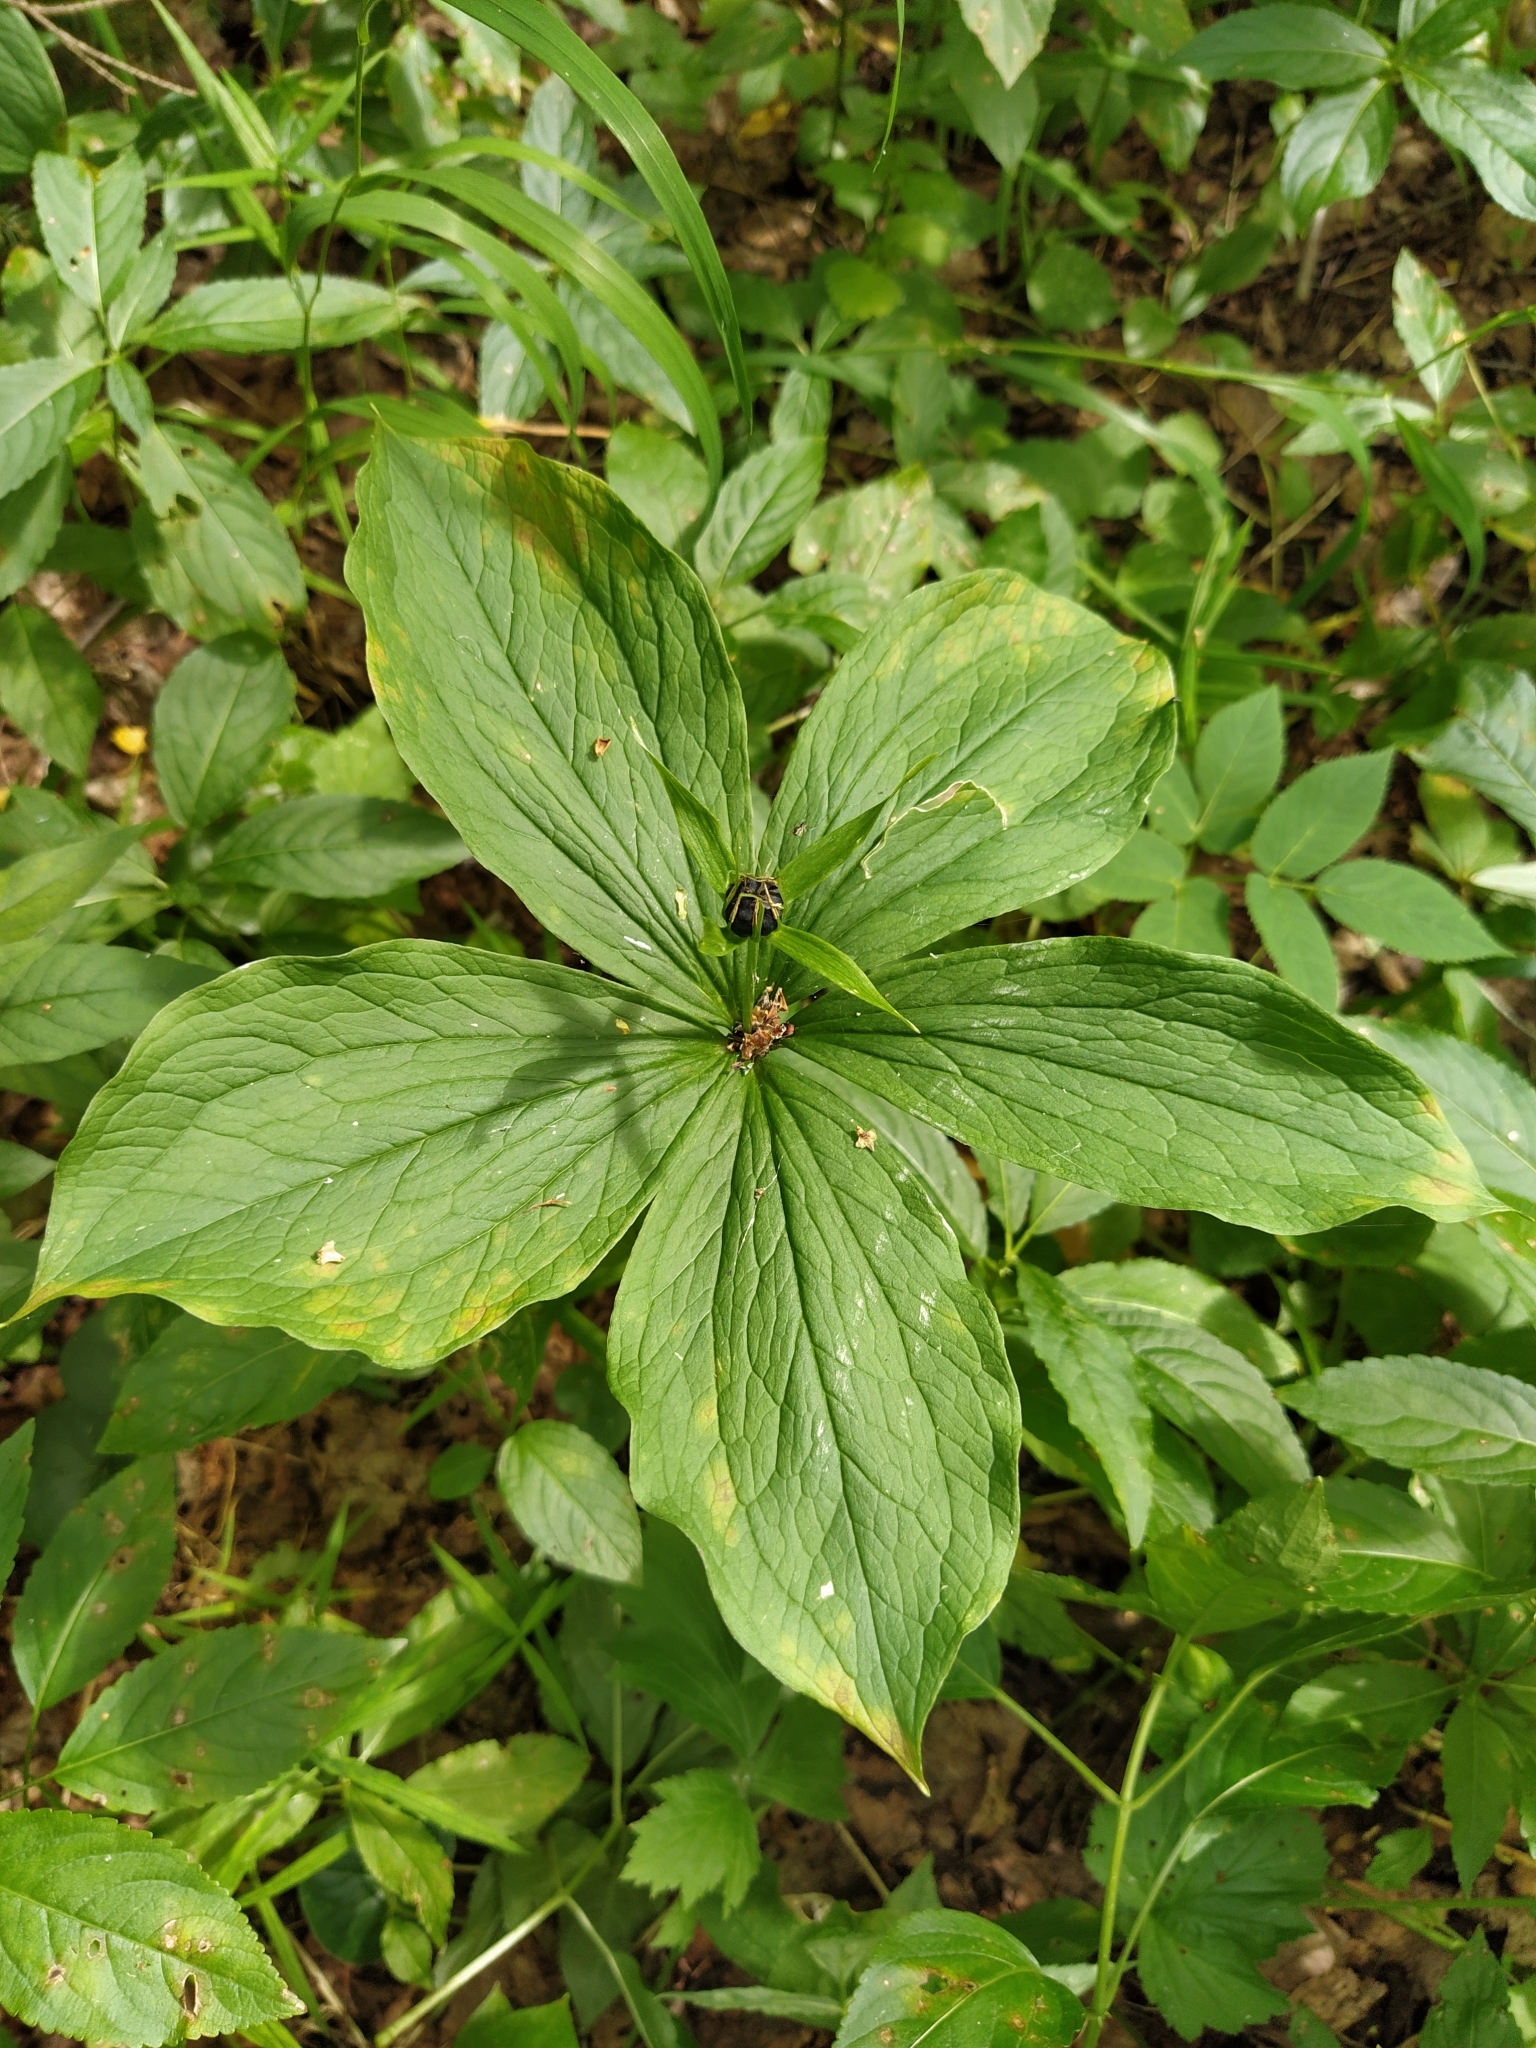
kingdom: Plantae
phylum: Tracheophyta
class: Liliopsida
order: Liliales
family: Melanthiaceae
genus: Paris
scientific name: Paris quadrifolia
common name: Herb-paris
